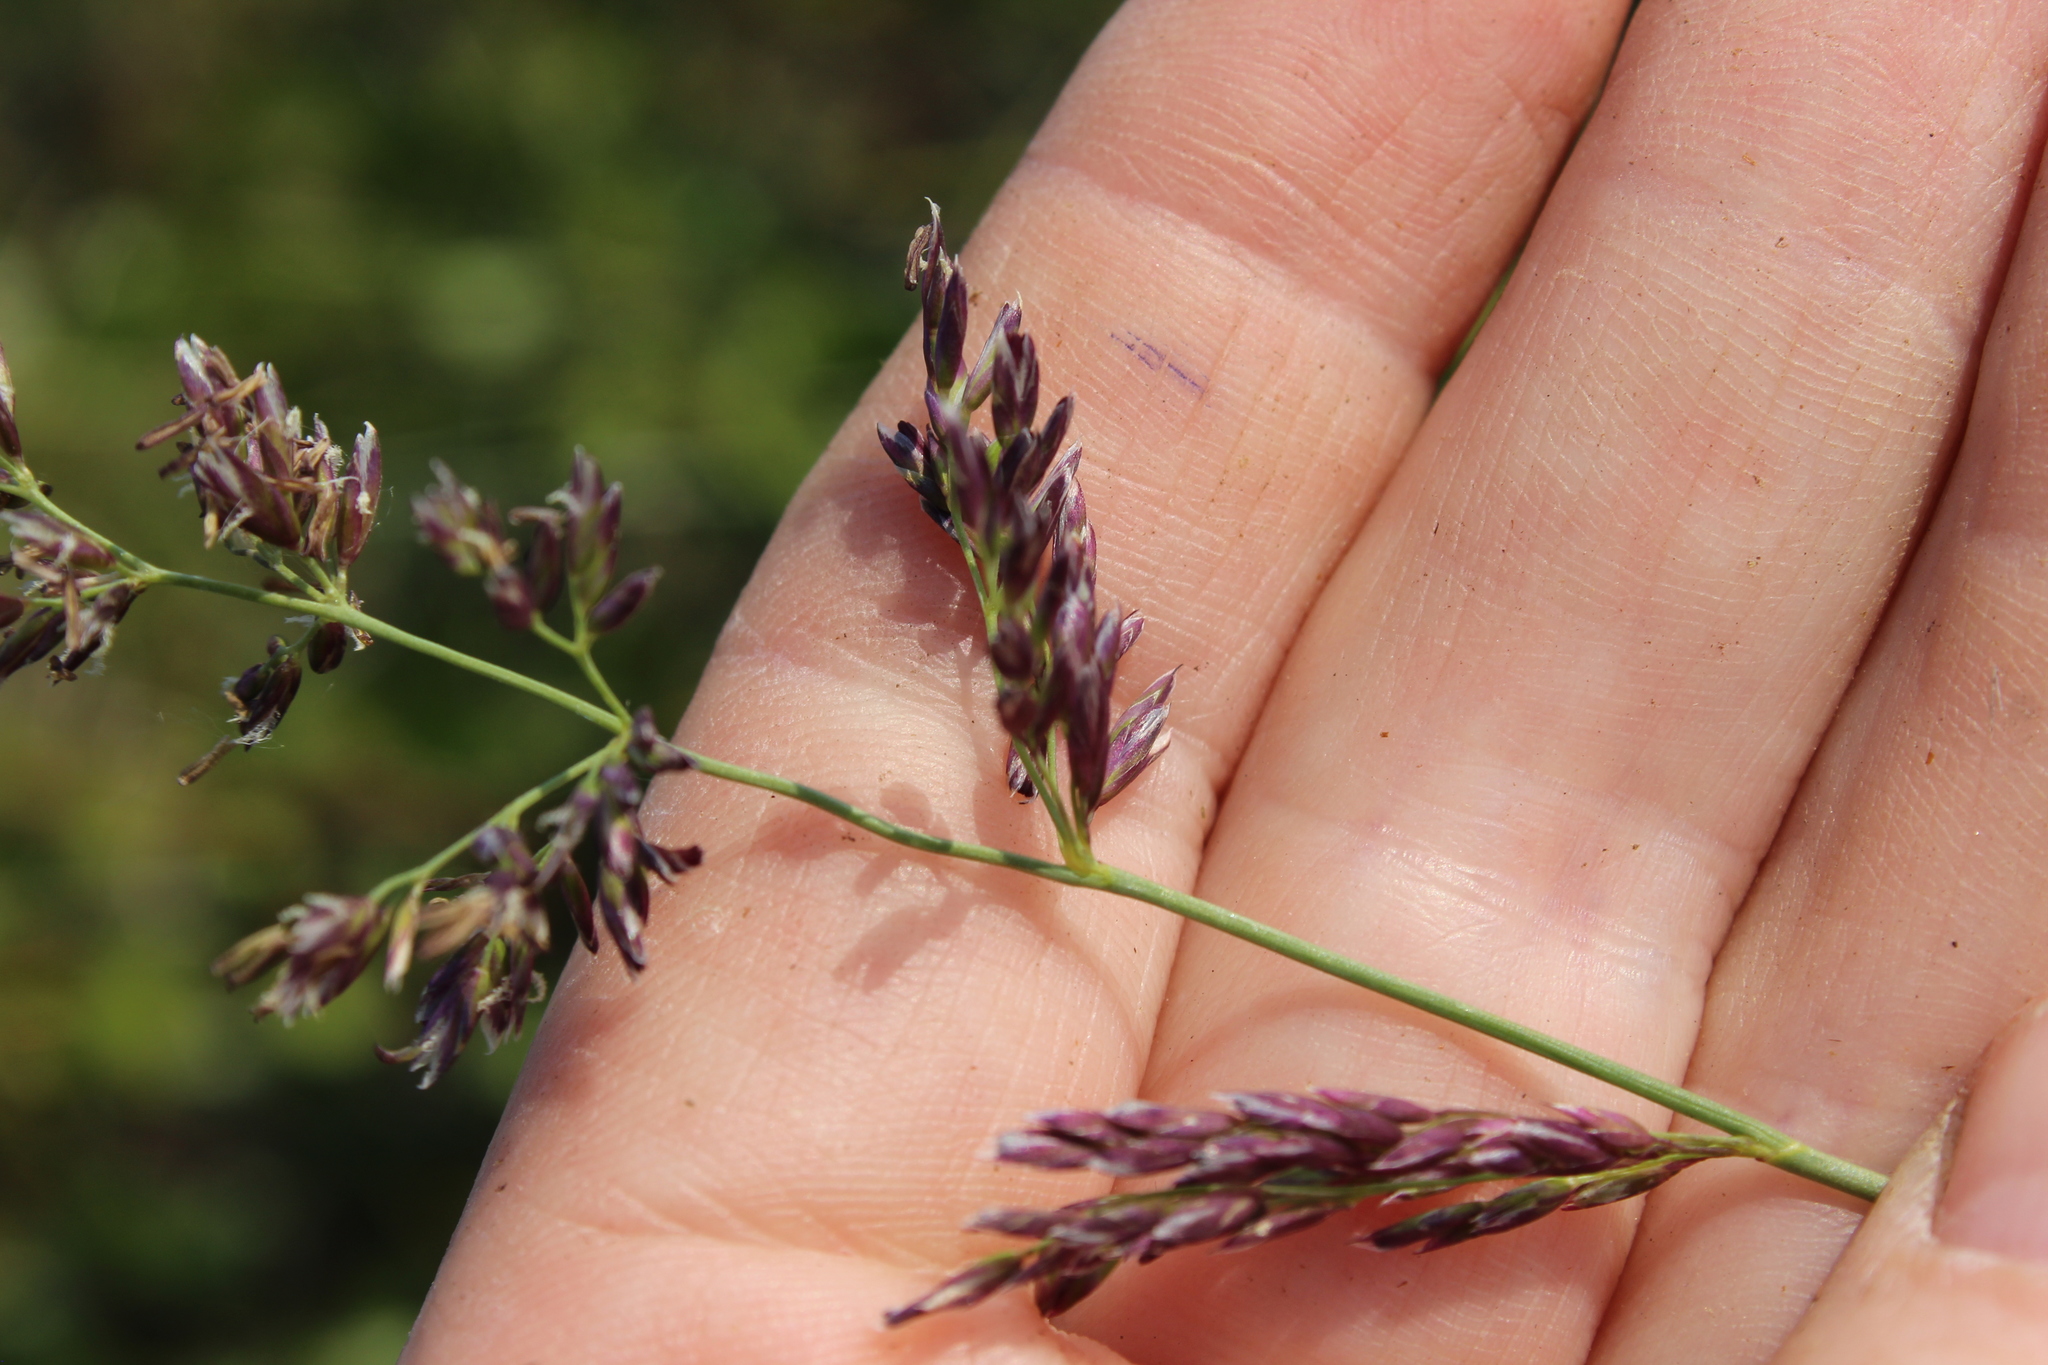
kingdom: Plantae
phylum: Tracheophyta
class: Liliopsida
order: Poales
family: Poaceae
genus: Arctagrostis
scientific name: Arctagrostis latifolia
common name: Arctic grass
